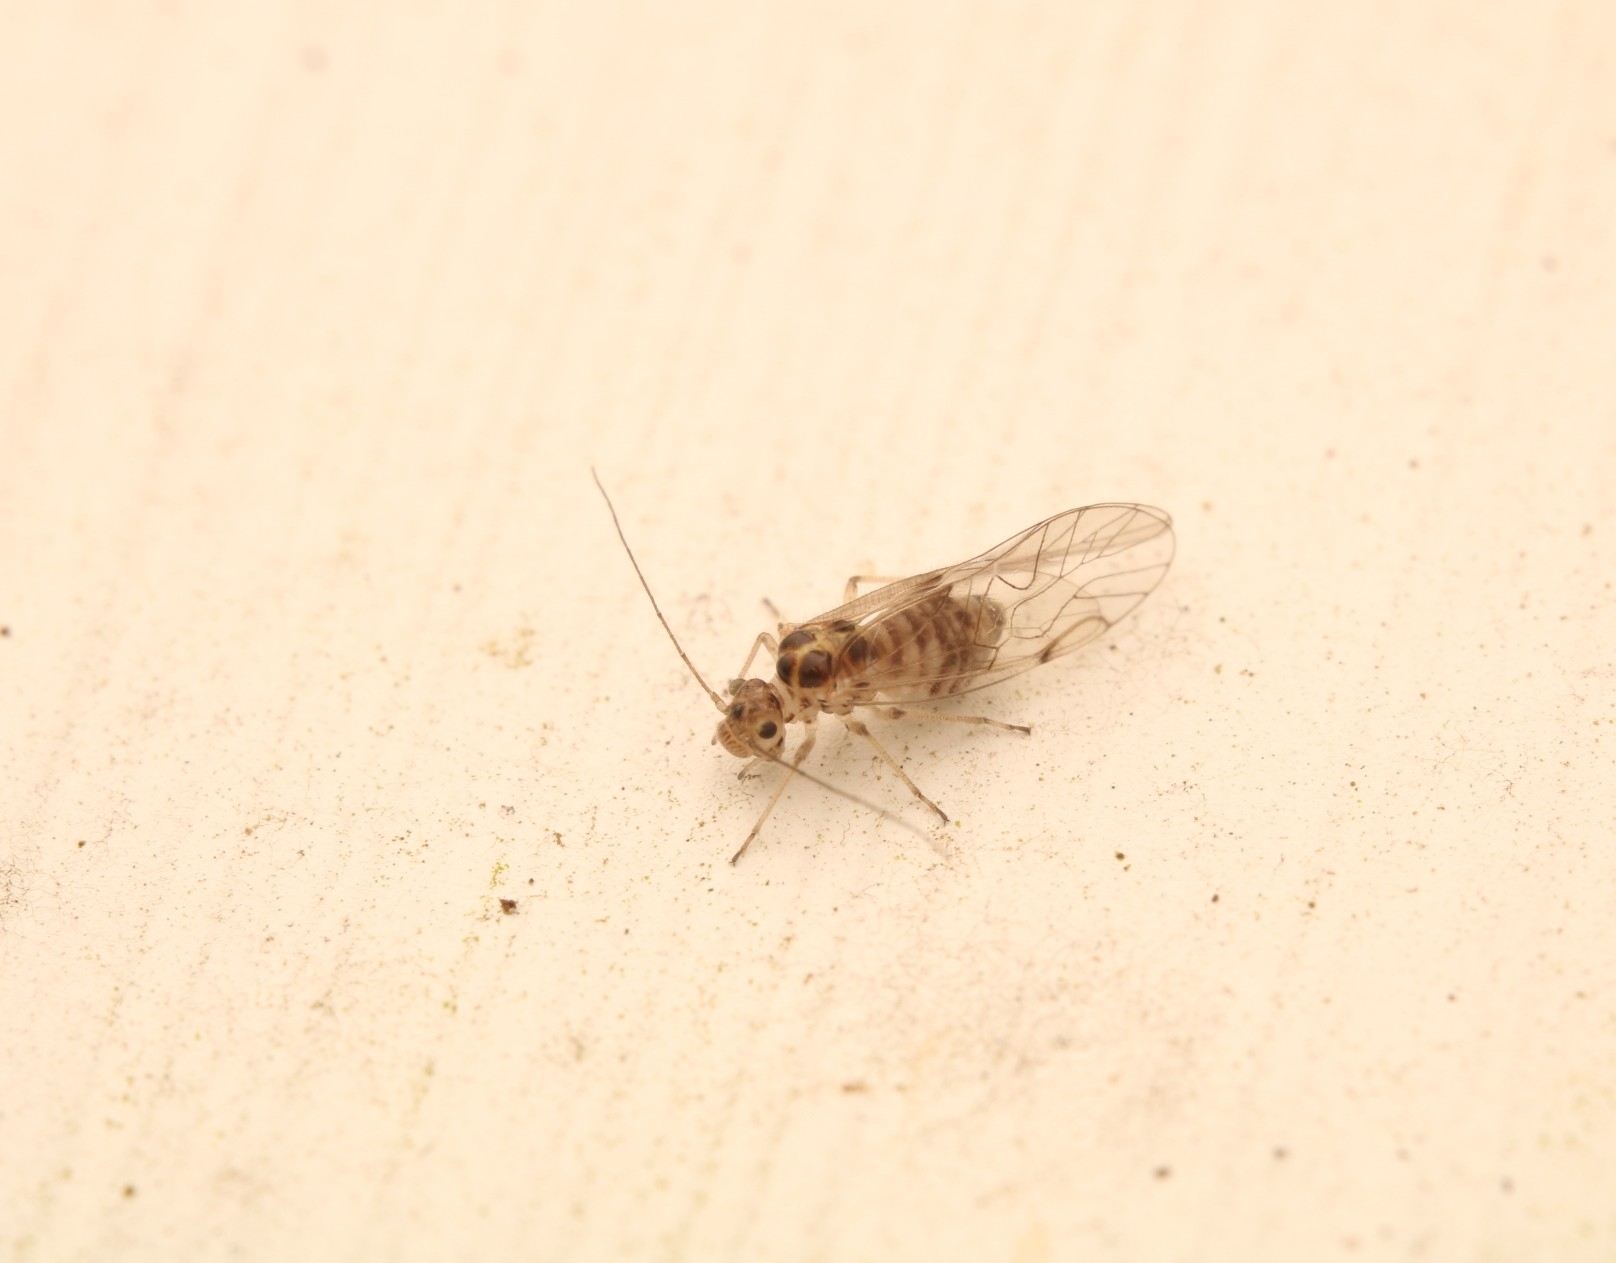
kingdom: Animalia
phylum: Arthropoda
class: Insecta
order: Psocodea
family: Dasydemellidae
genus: Teliapsocus
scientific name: Teliapsocus conterminus
